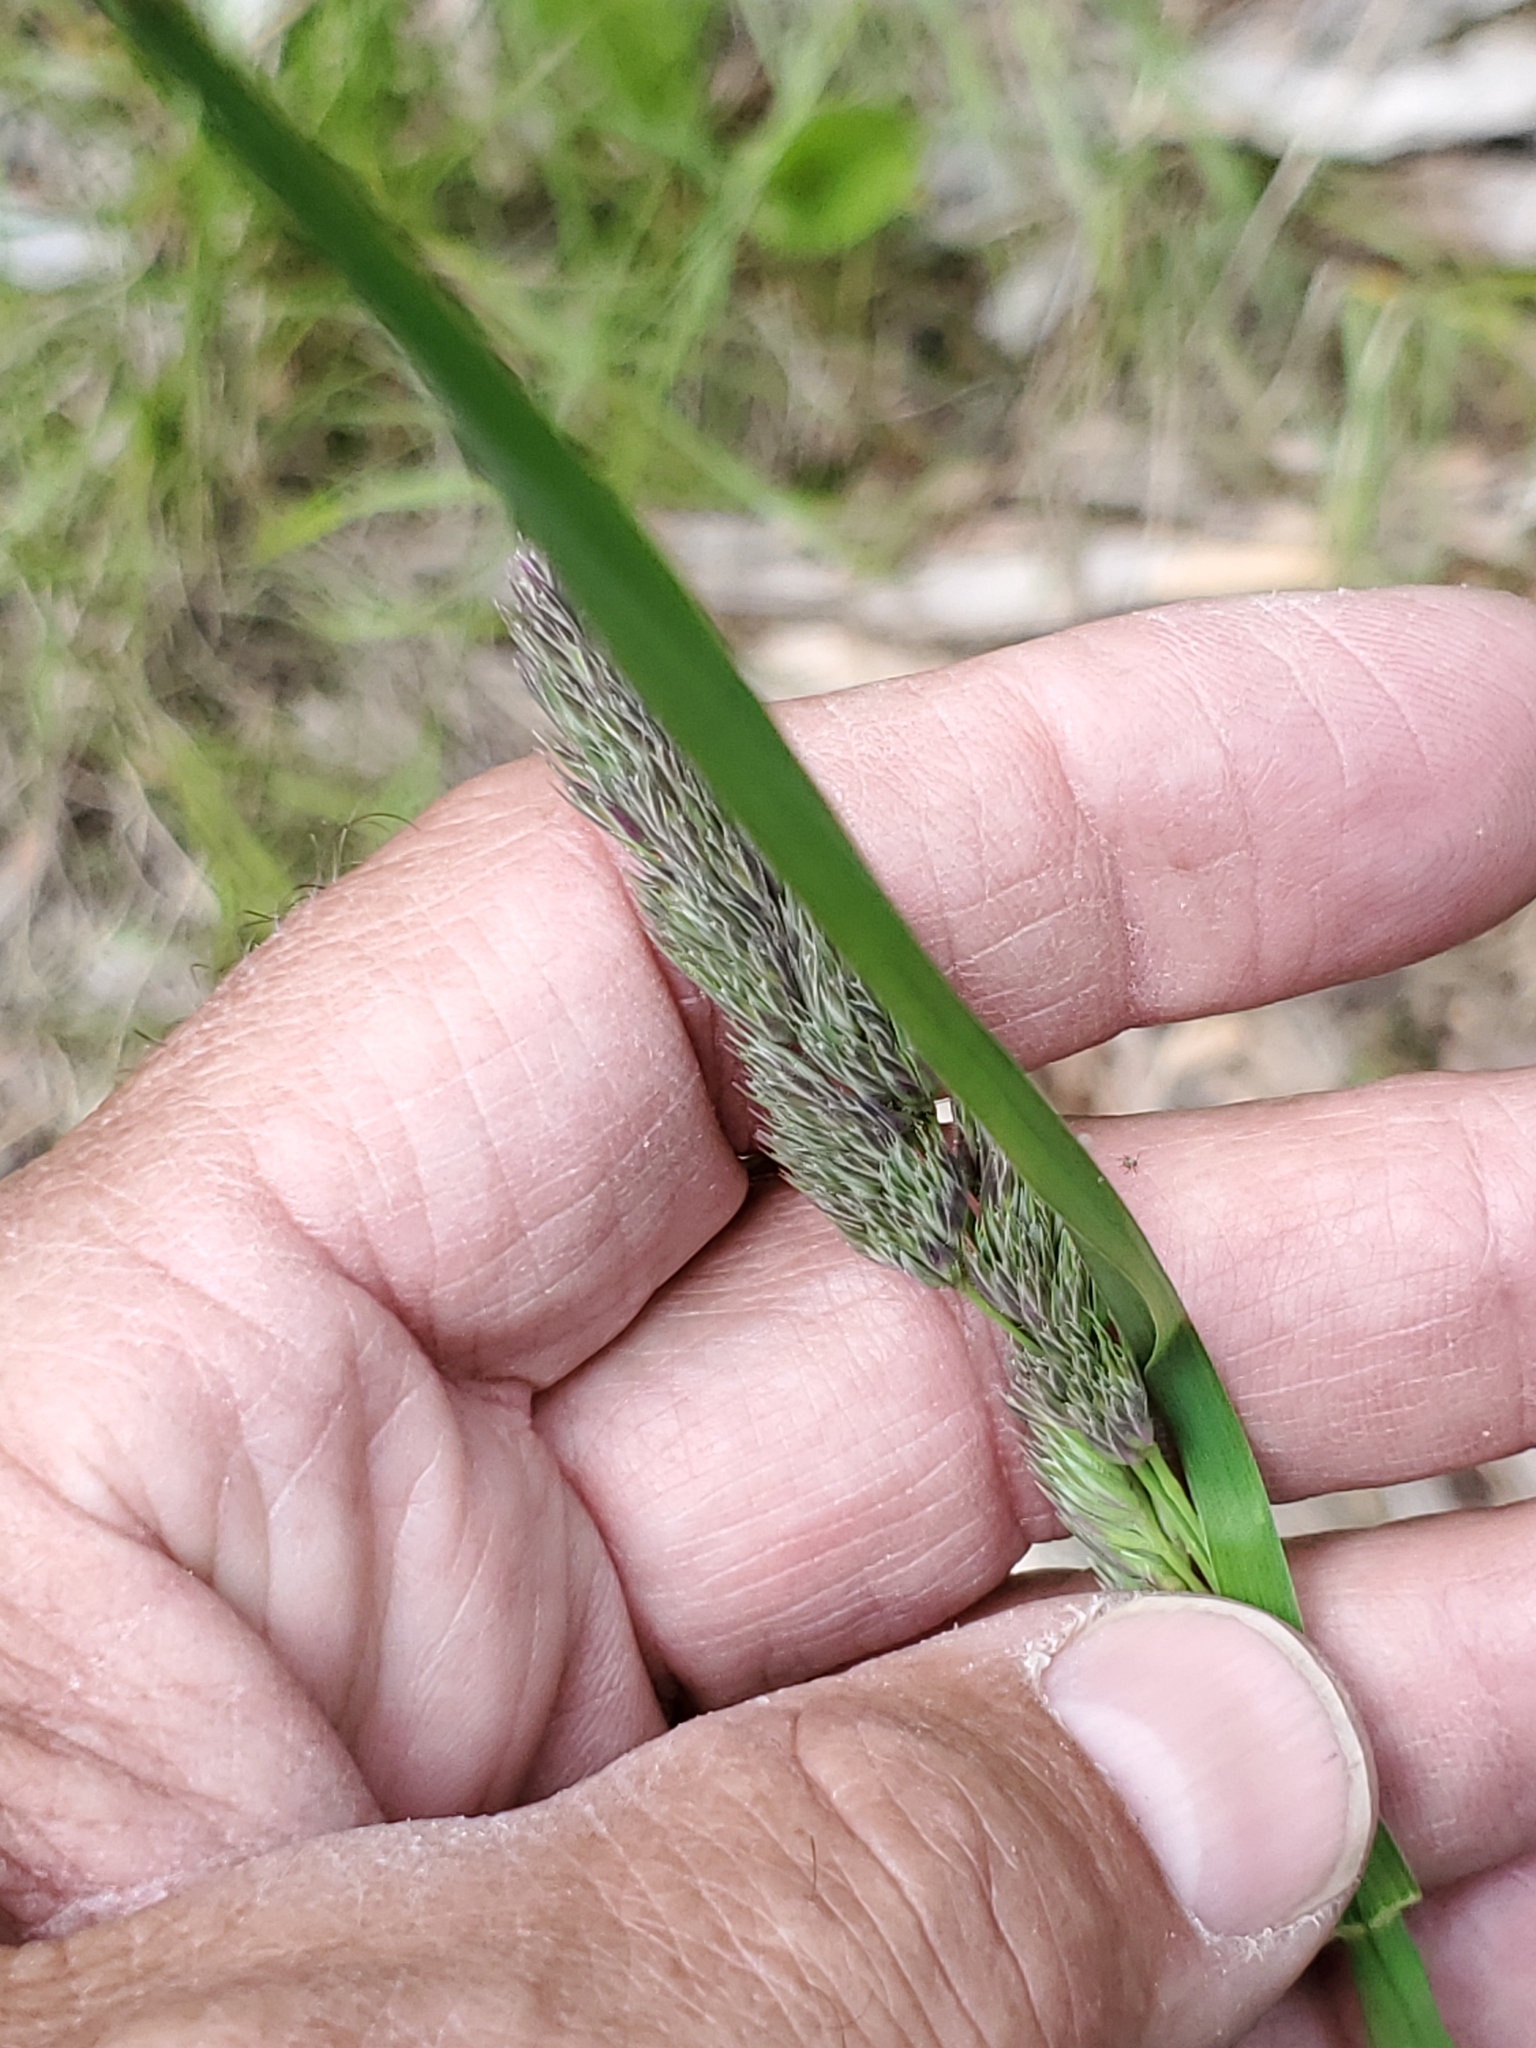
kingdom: Plantae
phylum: Tracheophyta
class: Liliopsida
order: Poales
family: Poaceae
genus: Dactylis
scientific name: Dactylis glomerata
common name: Orchardgrass
